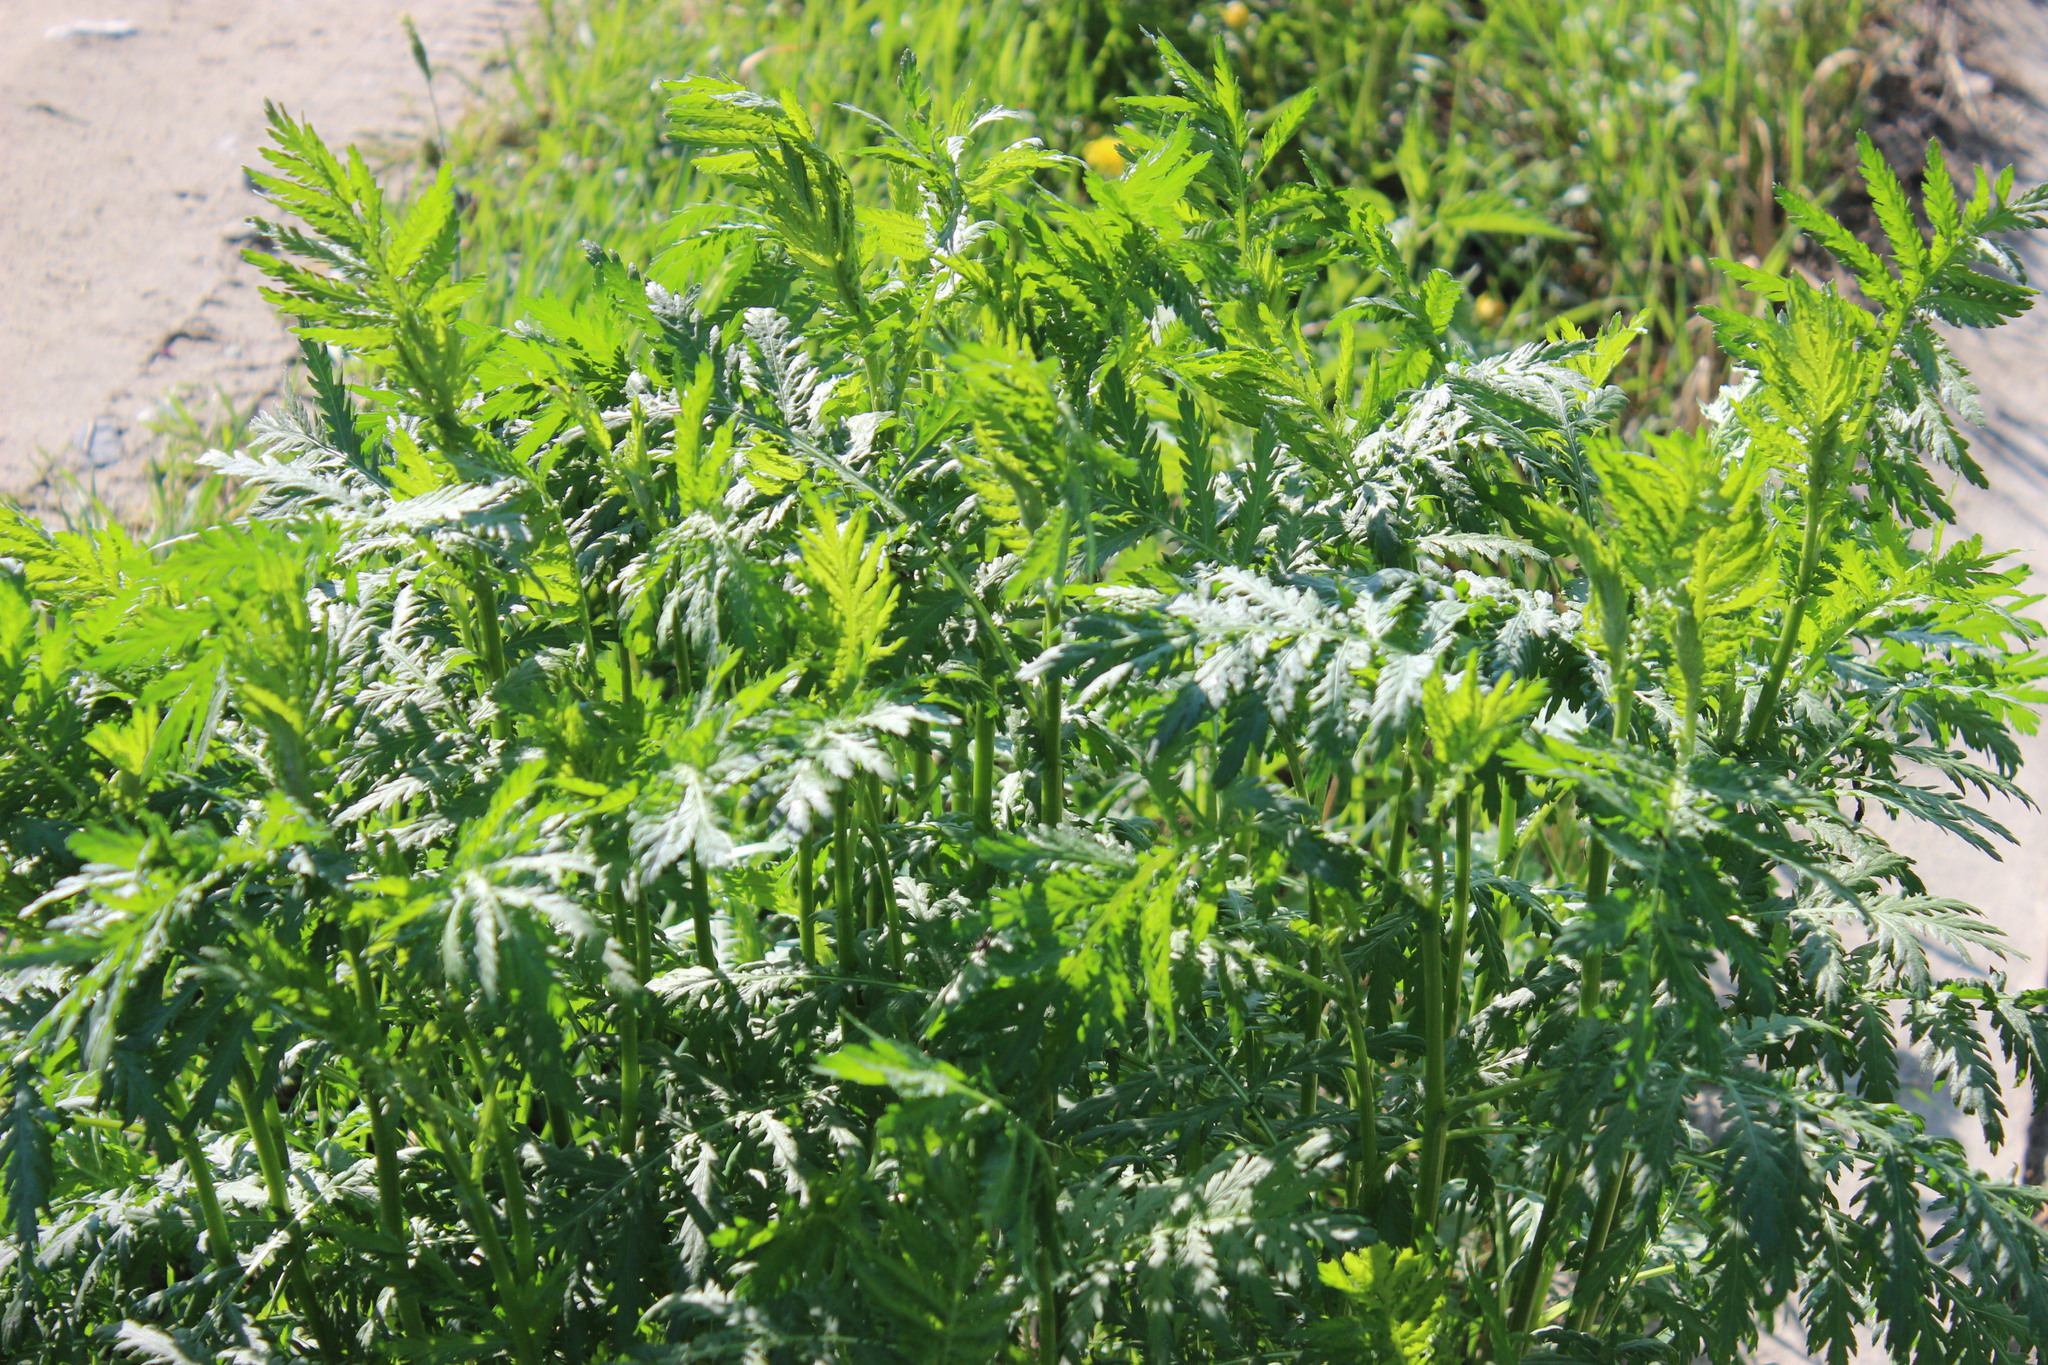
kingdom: Plantae
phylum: Tracheophyta
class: Magnoliopsida
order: Asterales
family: Asteraceae
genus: Tanacetum
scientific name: Tanacetum vulgare
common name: Common tansy
